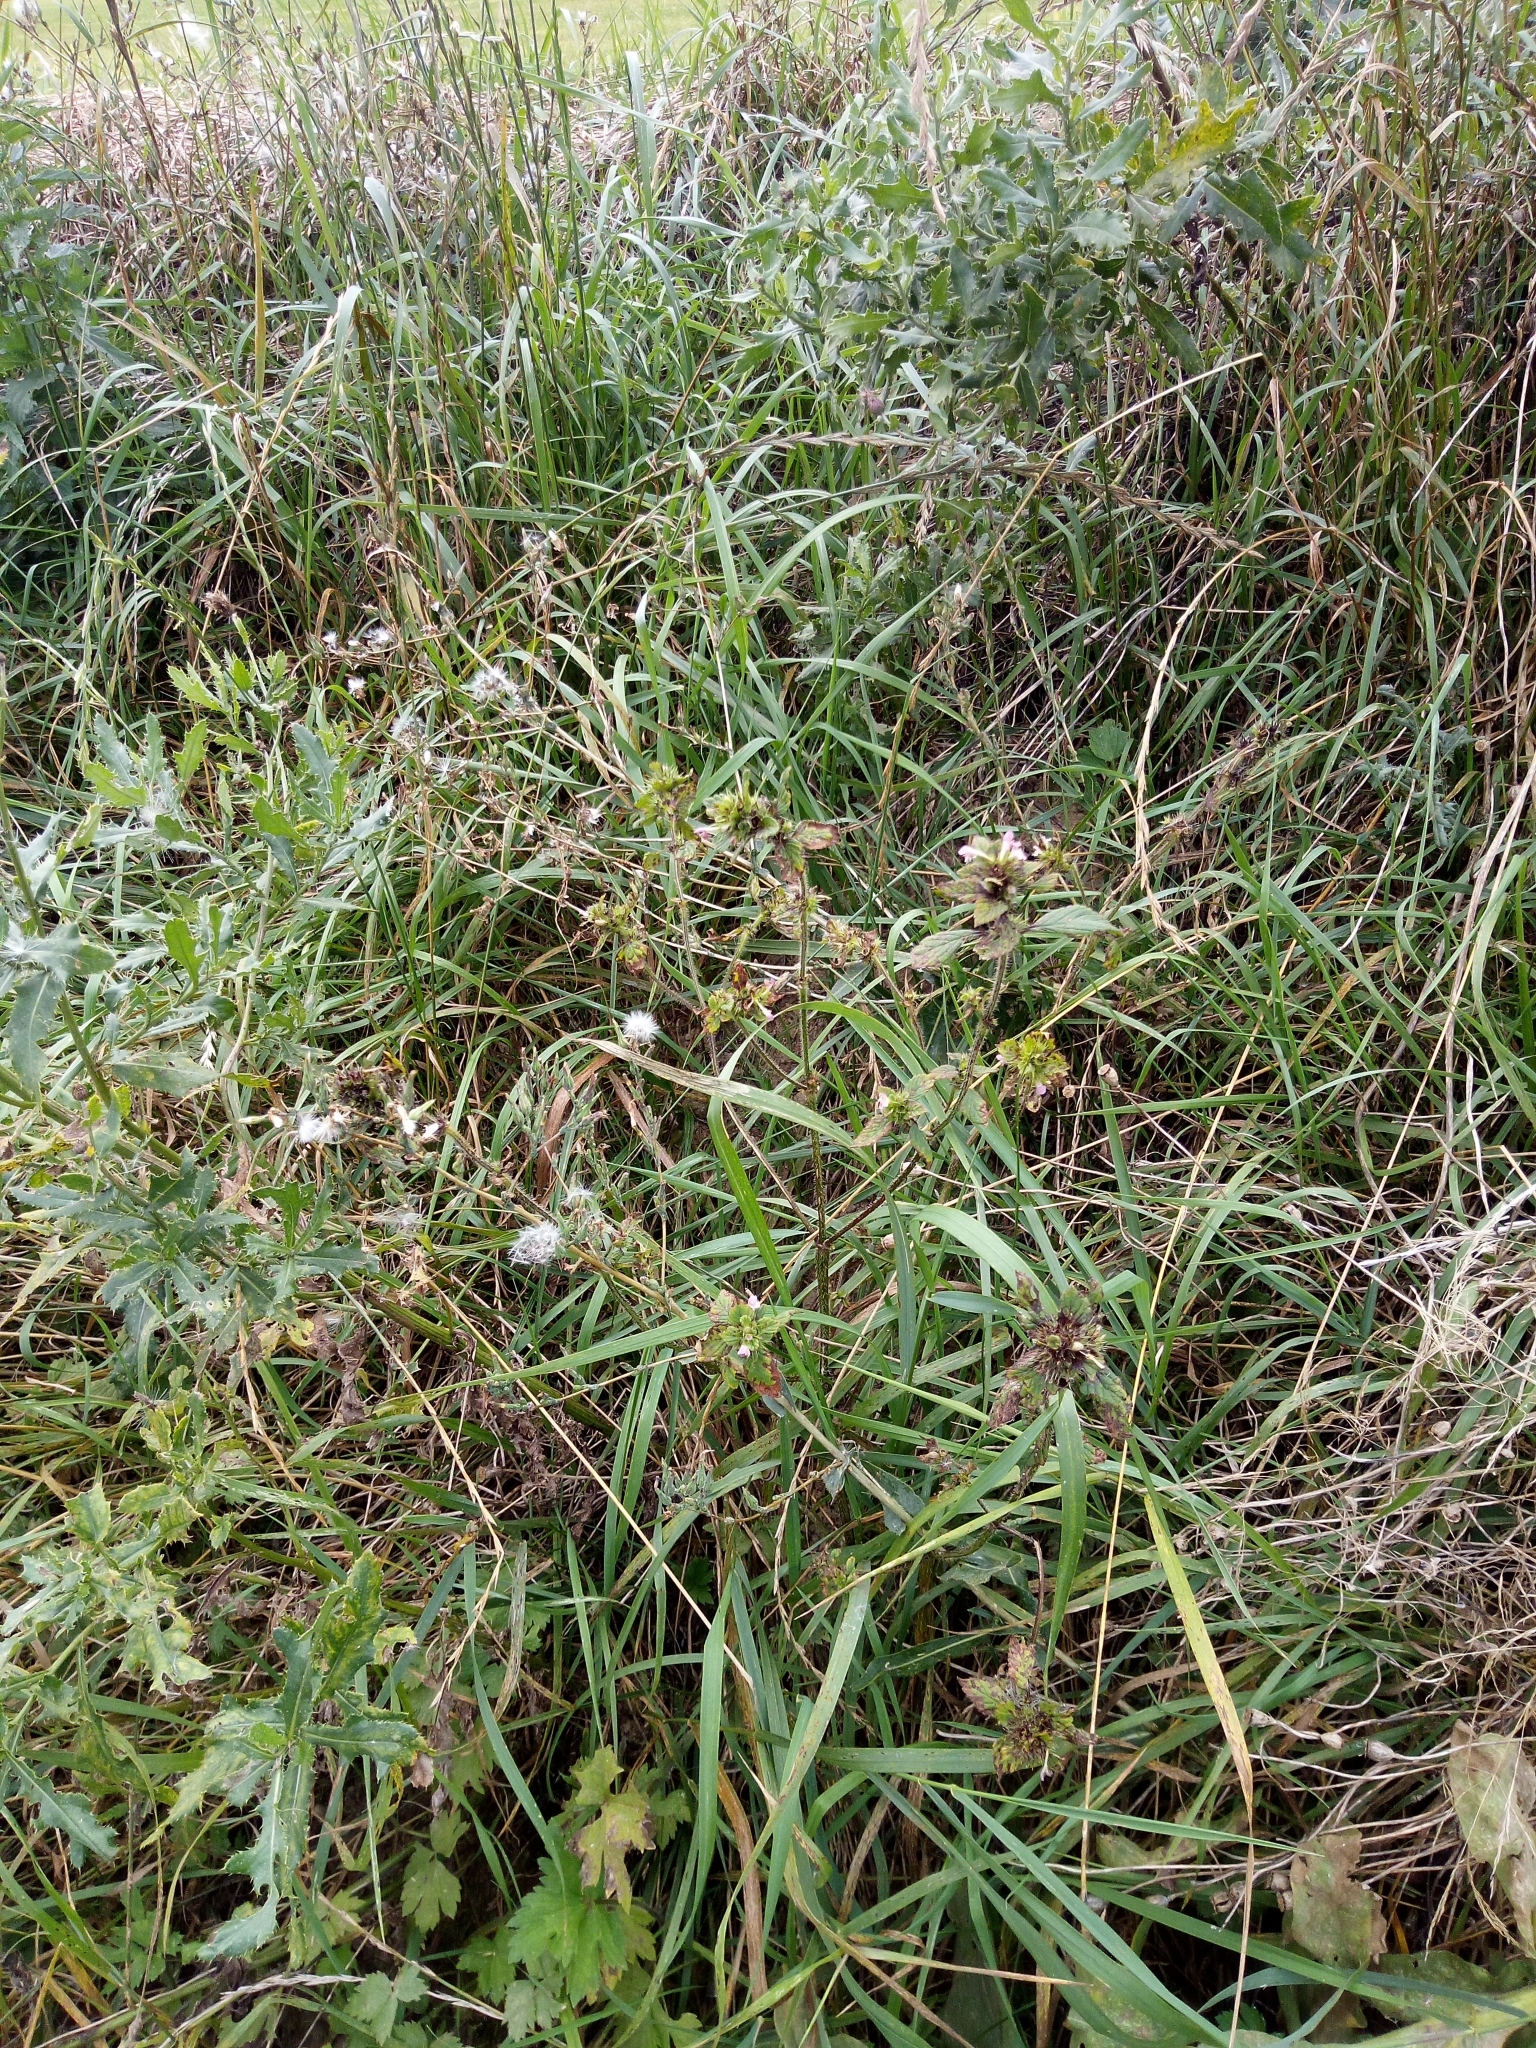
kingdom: Plantae
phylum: Tracheophyta
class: Magnoliopsida
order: Lamiales
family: Lamiaceae
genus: Galeopsis
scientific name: Galeopsis bifida
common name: Bifid hemp-nettle
